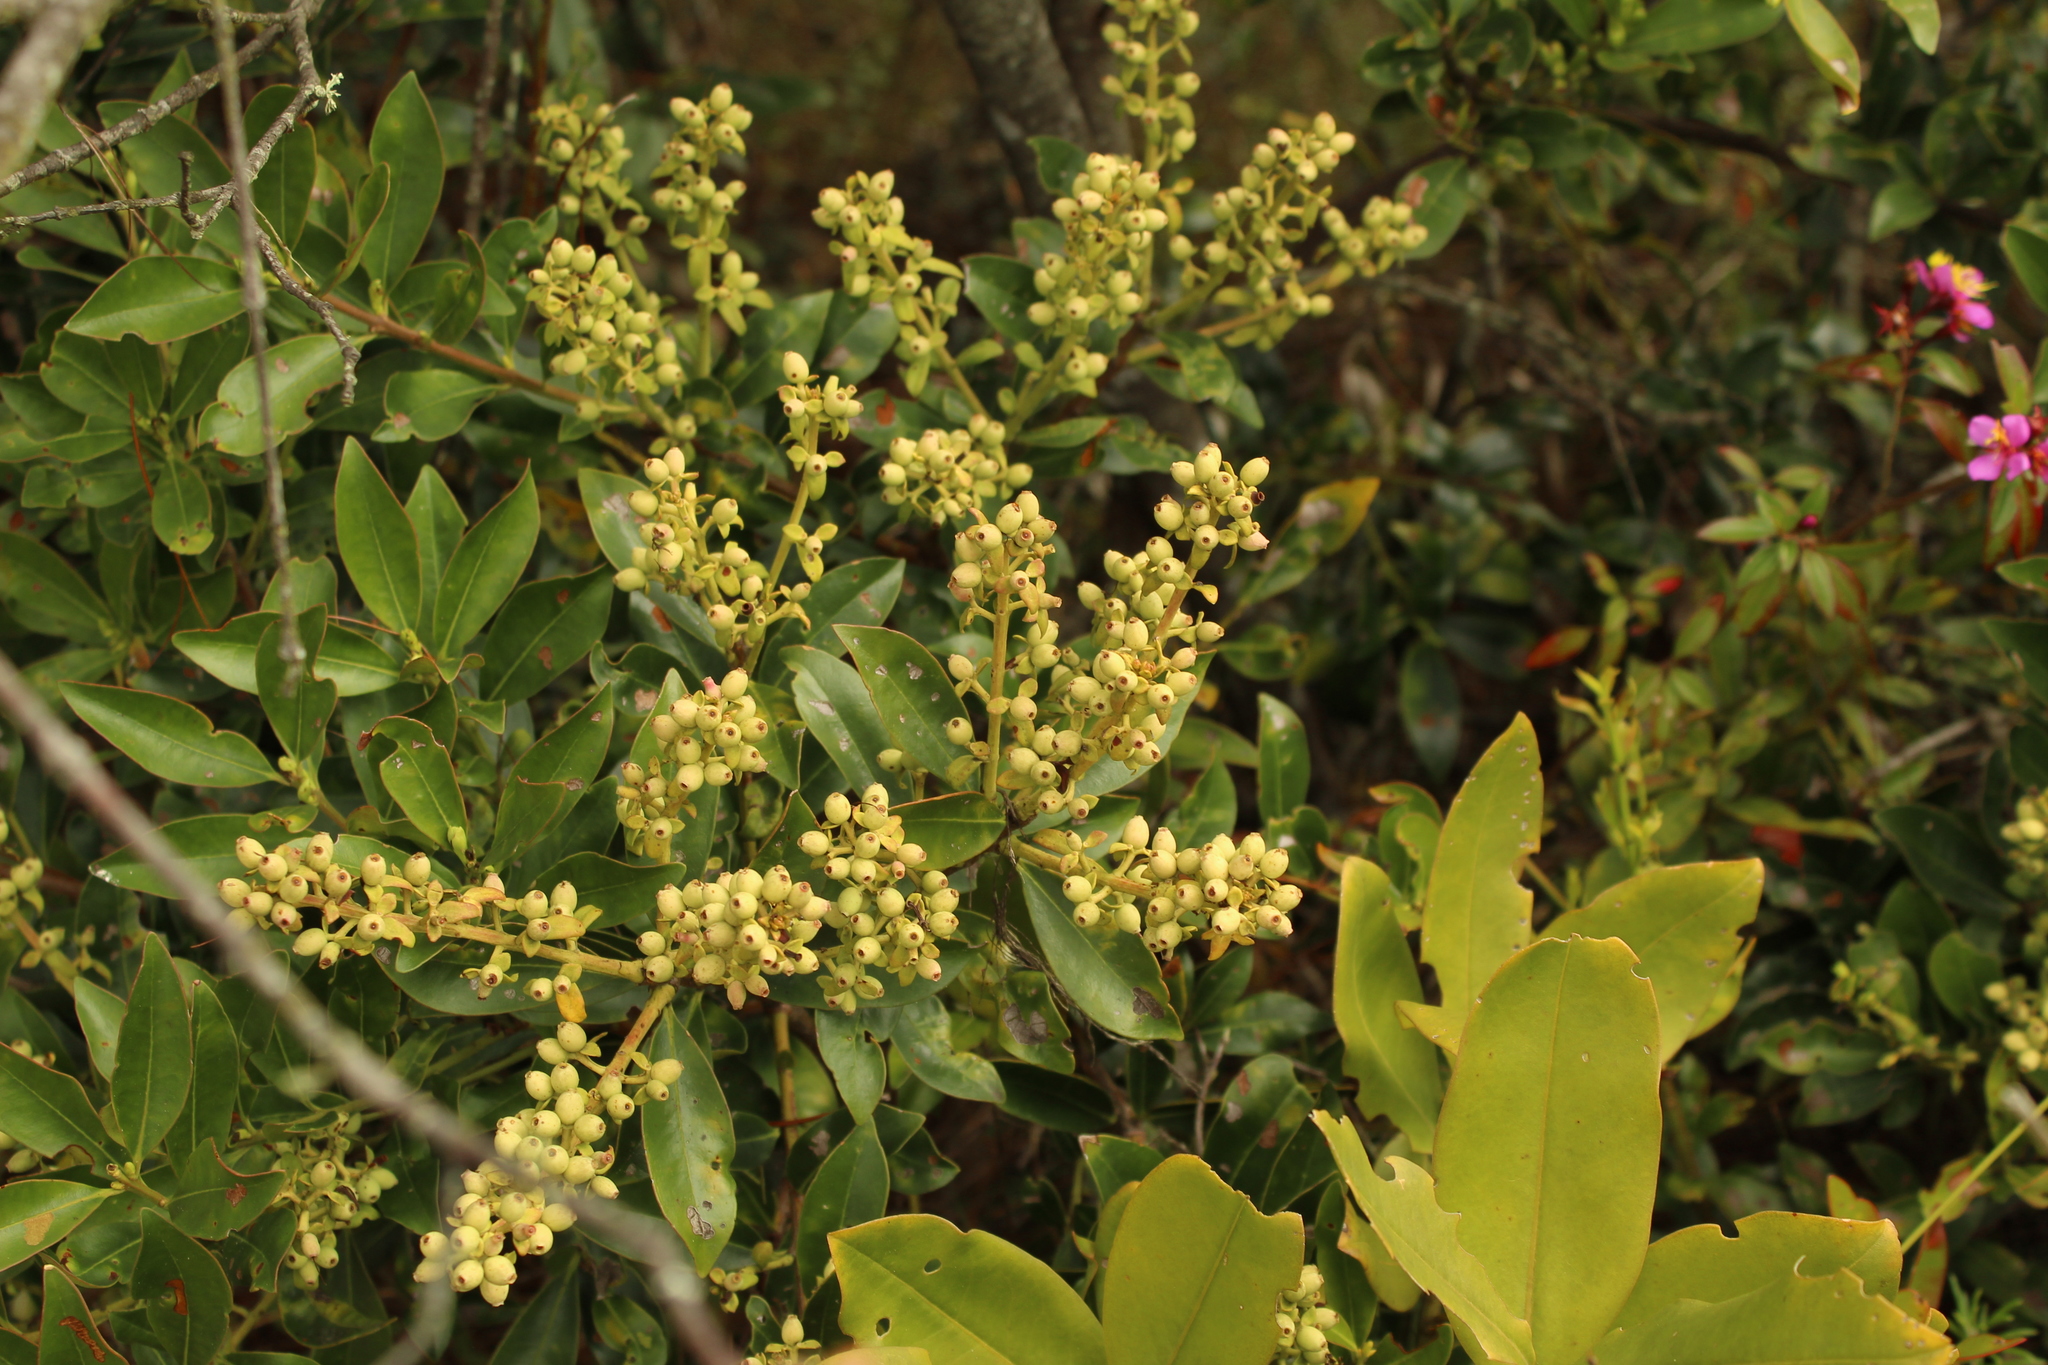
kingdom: Plantae
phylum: Tracheophyta
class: Magnoliopsida
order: Santalales
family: Loranthaceae
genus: Gaiadendron
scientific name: Gaiadendron punctatum
